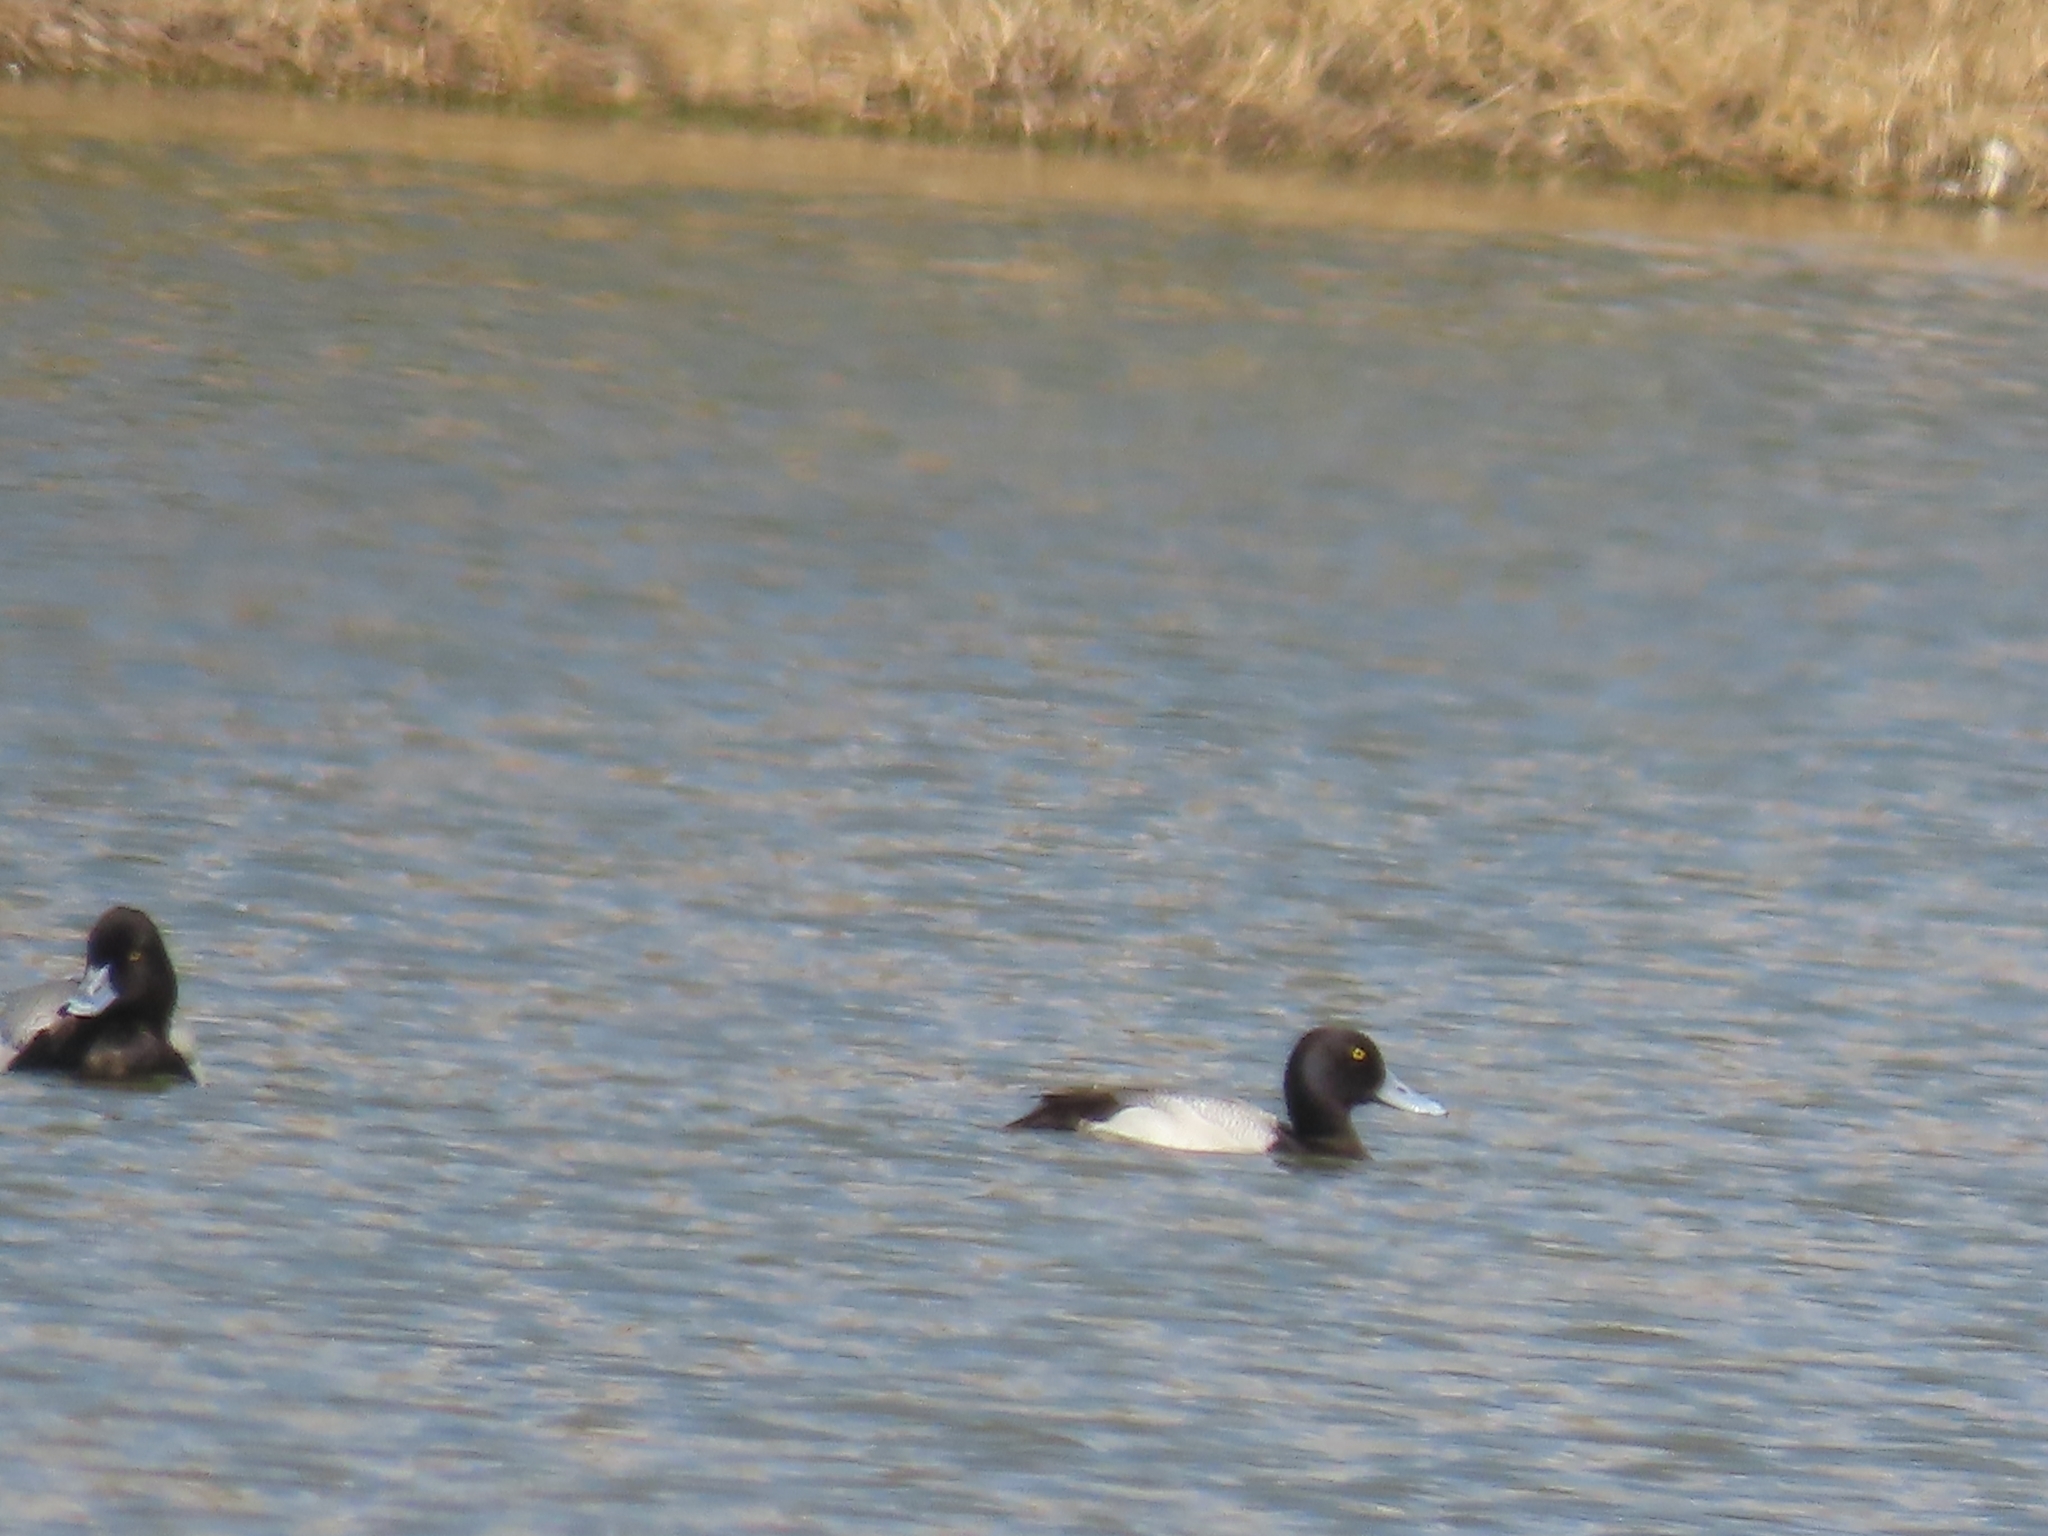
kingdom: Animalia
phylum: Chordata
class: Aves
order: Anseriformes
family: Anatidae
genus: Aythya
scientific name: Aythya affinis
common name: Lesser scaup
